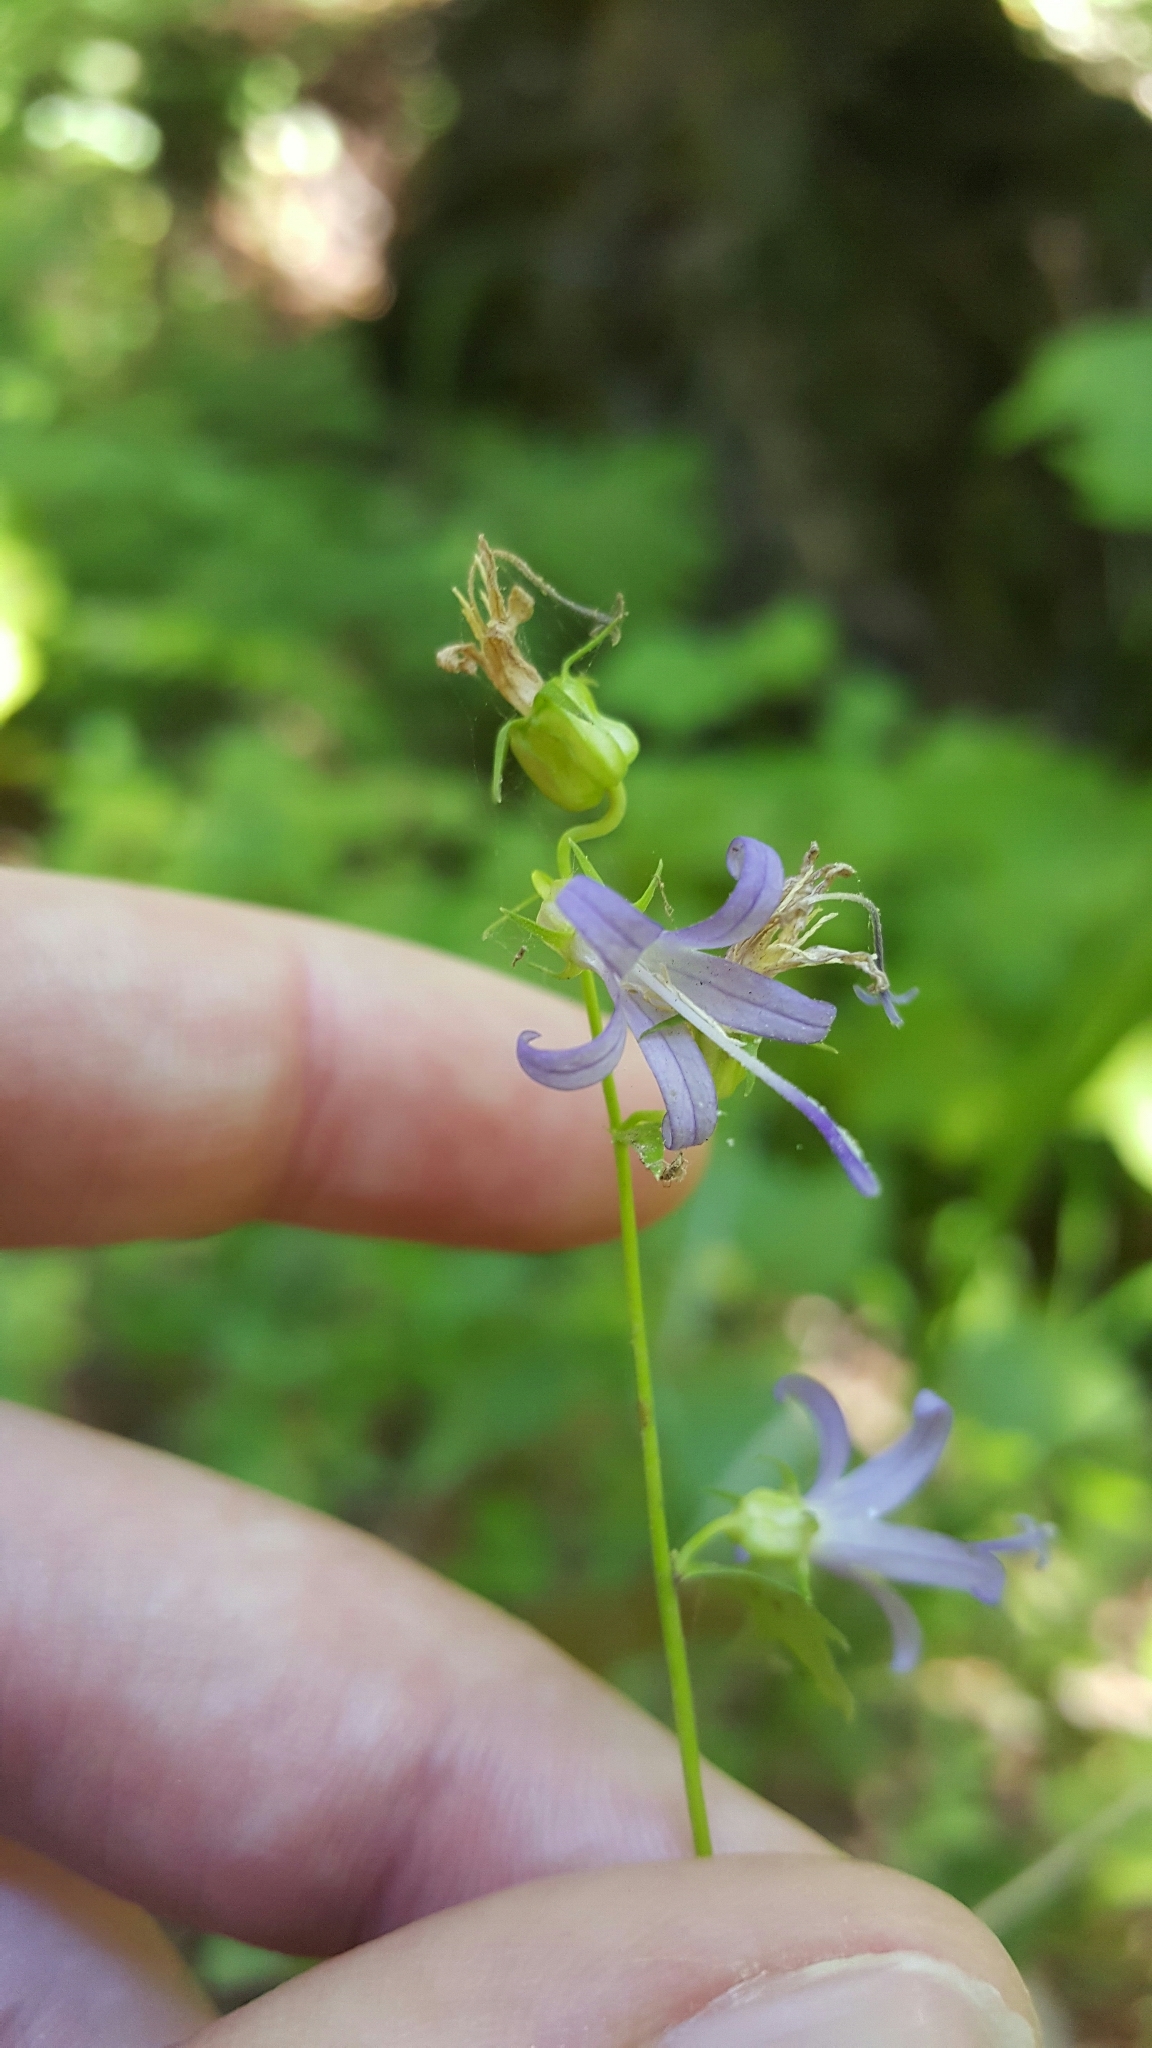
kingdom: Plantae
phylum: Tracheophyta
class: Magnoliopsida
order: Asterales
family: Campanulaceae
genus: Smithiastrum
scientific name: Smithiastrum prenanthoides
